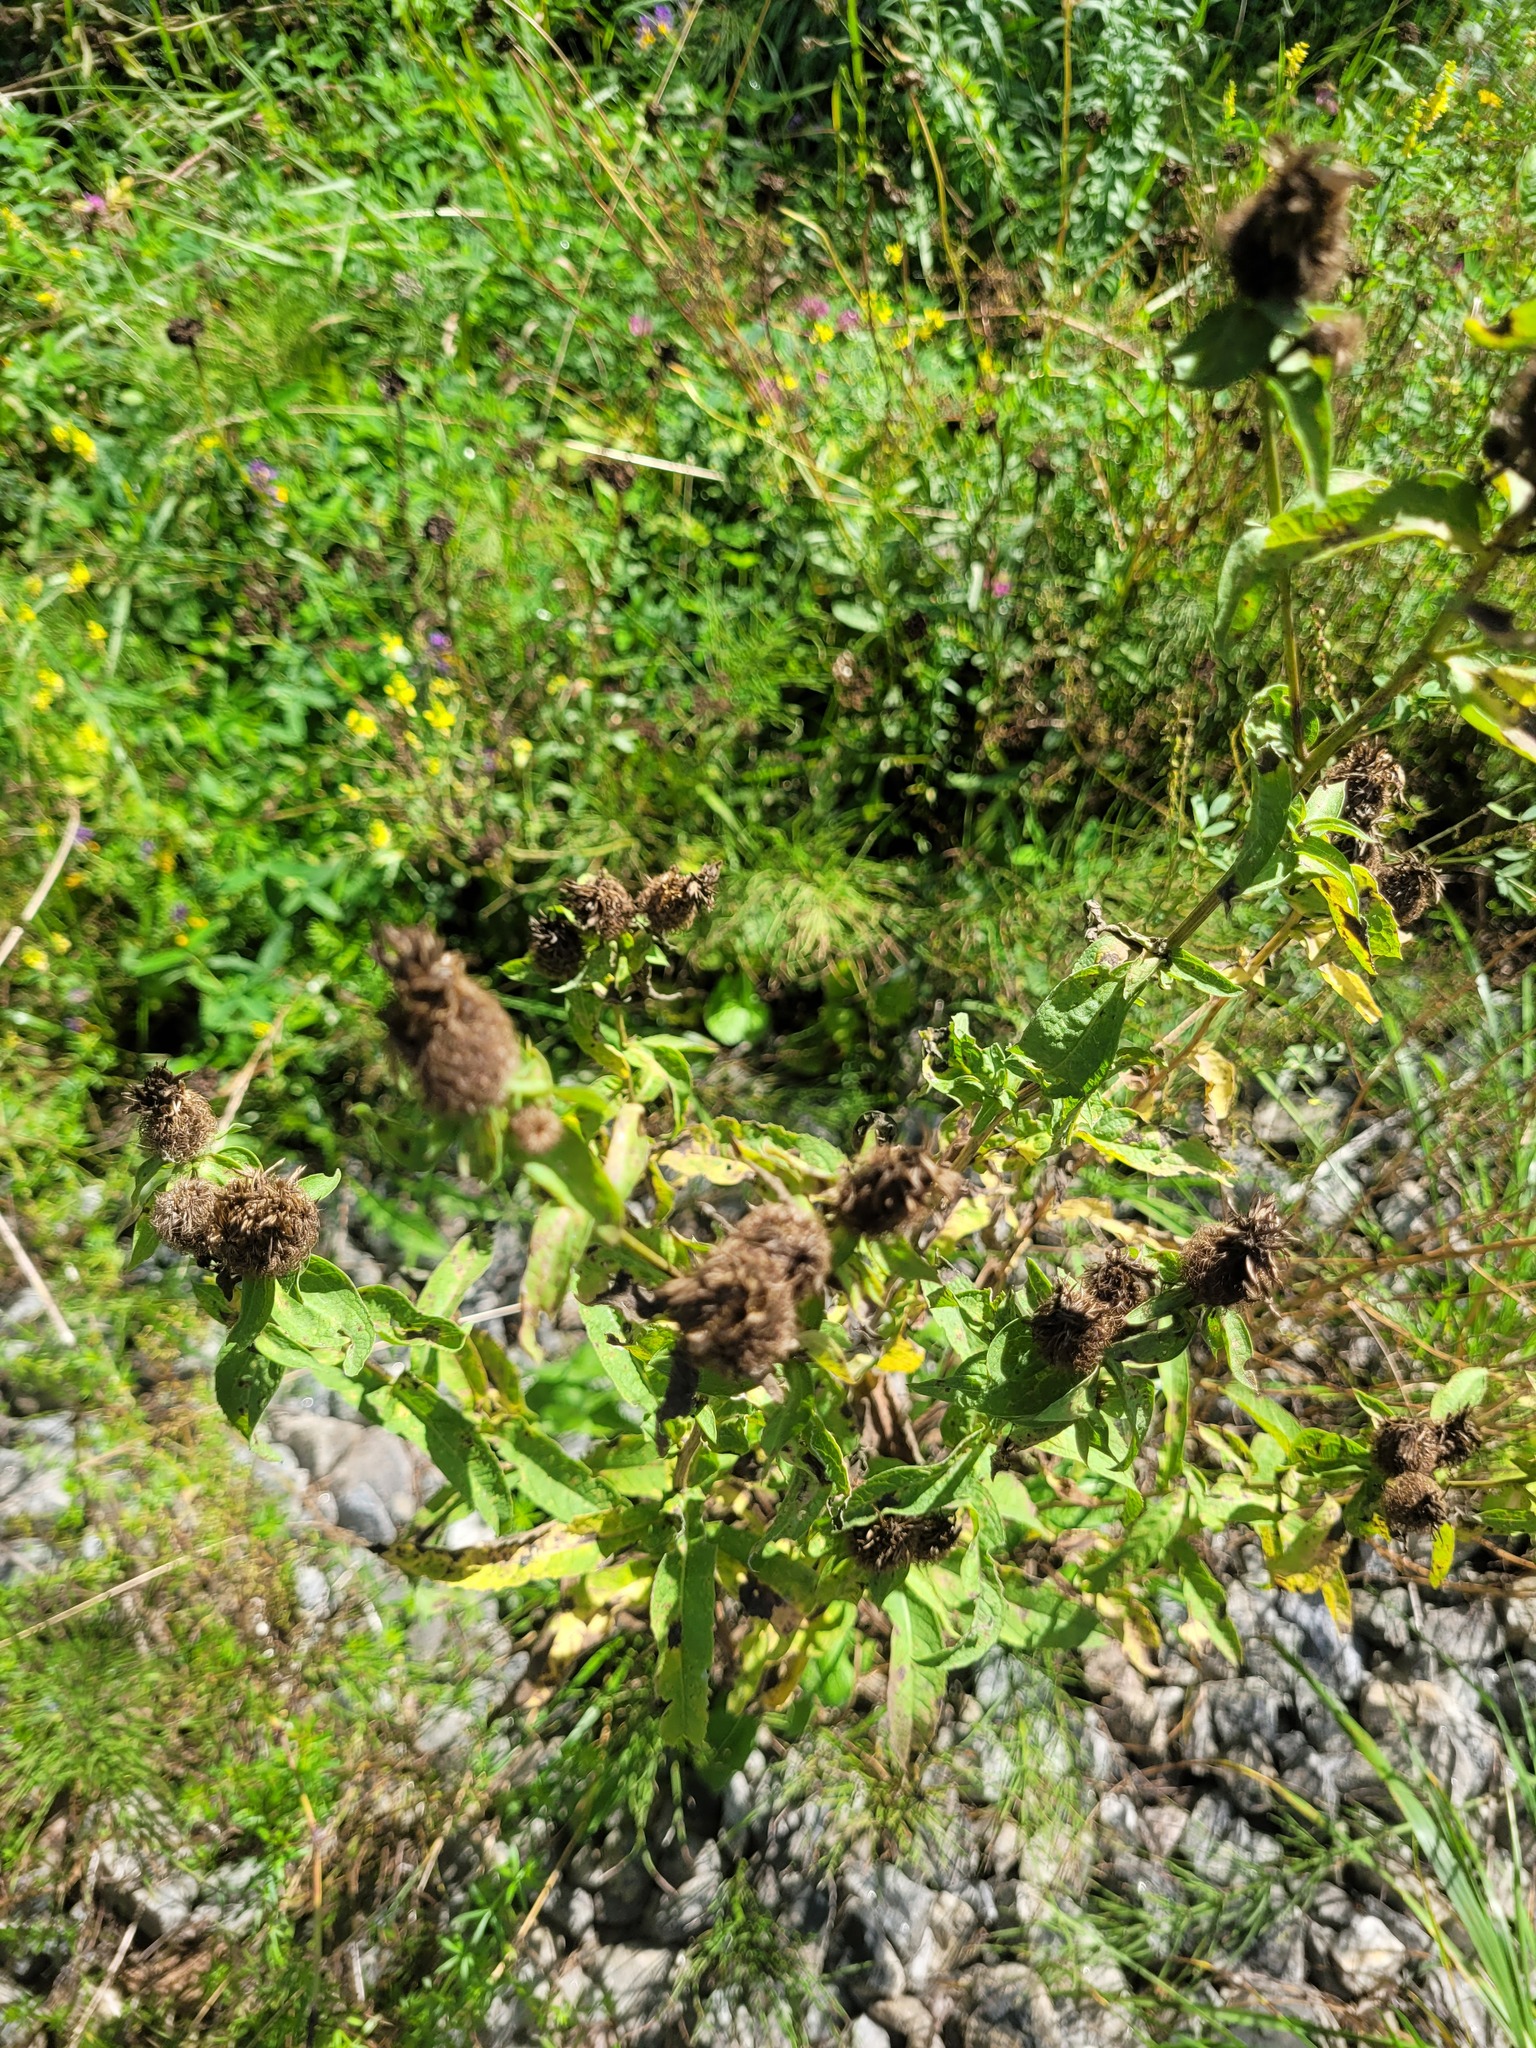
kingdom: Plantae
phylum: Tracheophyta
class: Magnoliopsida
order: Asterales
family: Asteraceae
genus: Centaurea
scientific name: Centaurea pseudophrygia
